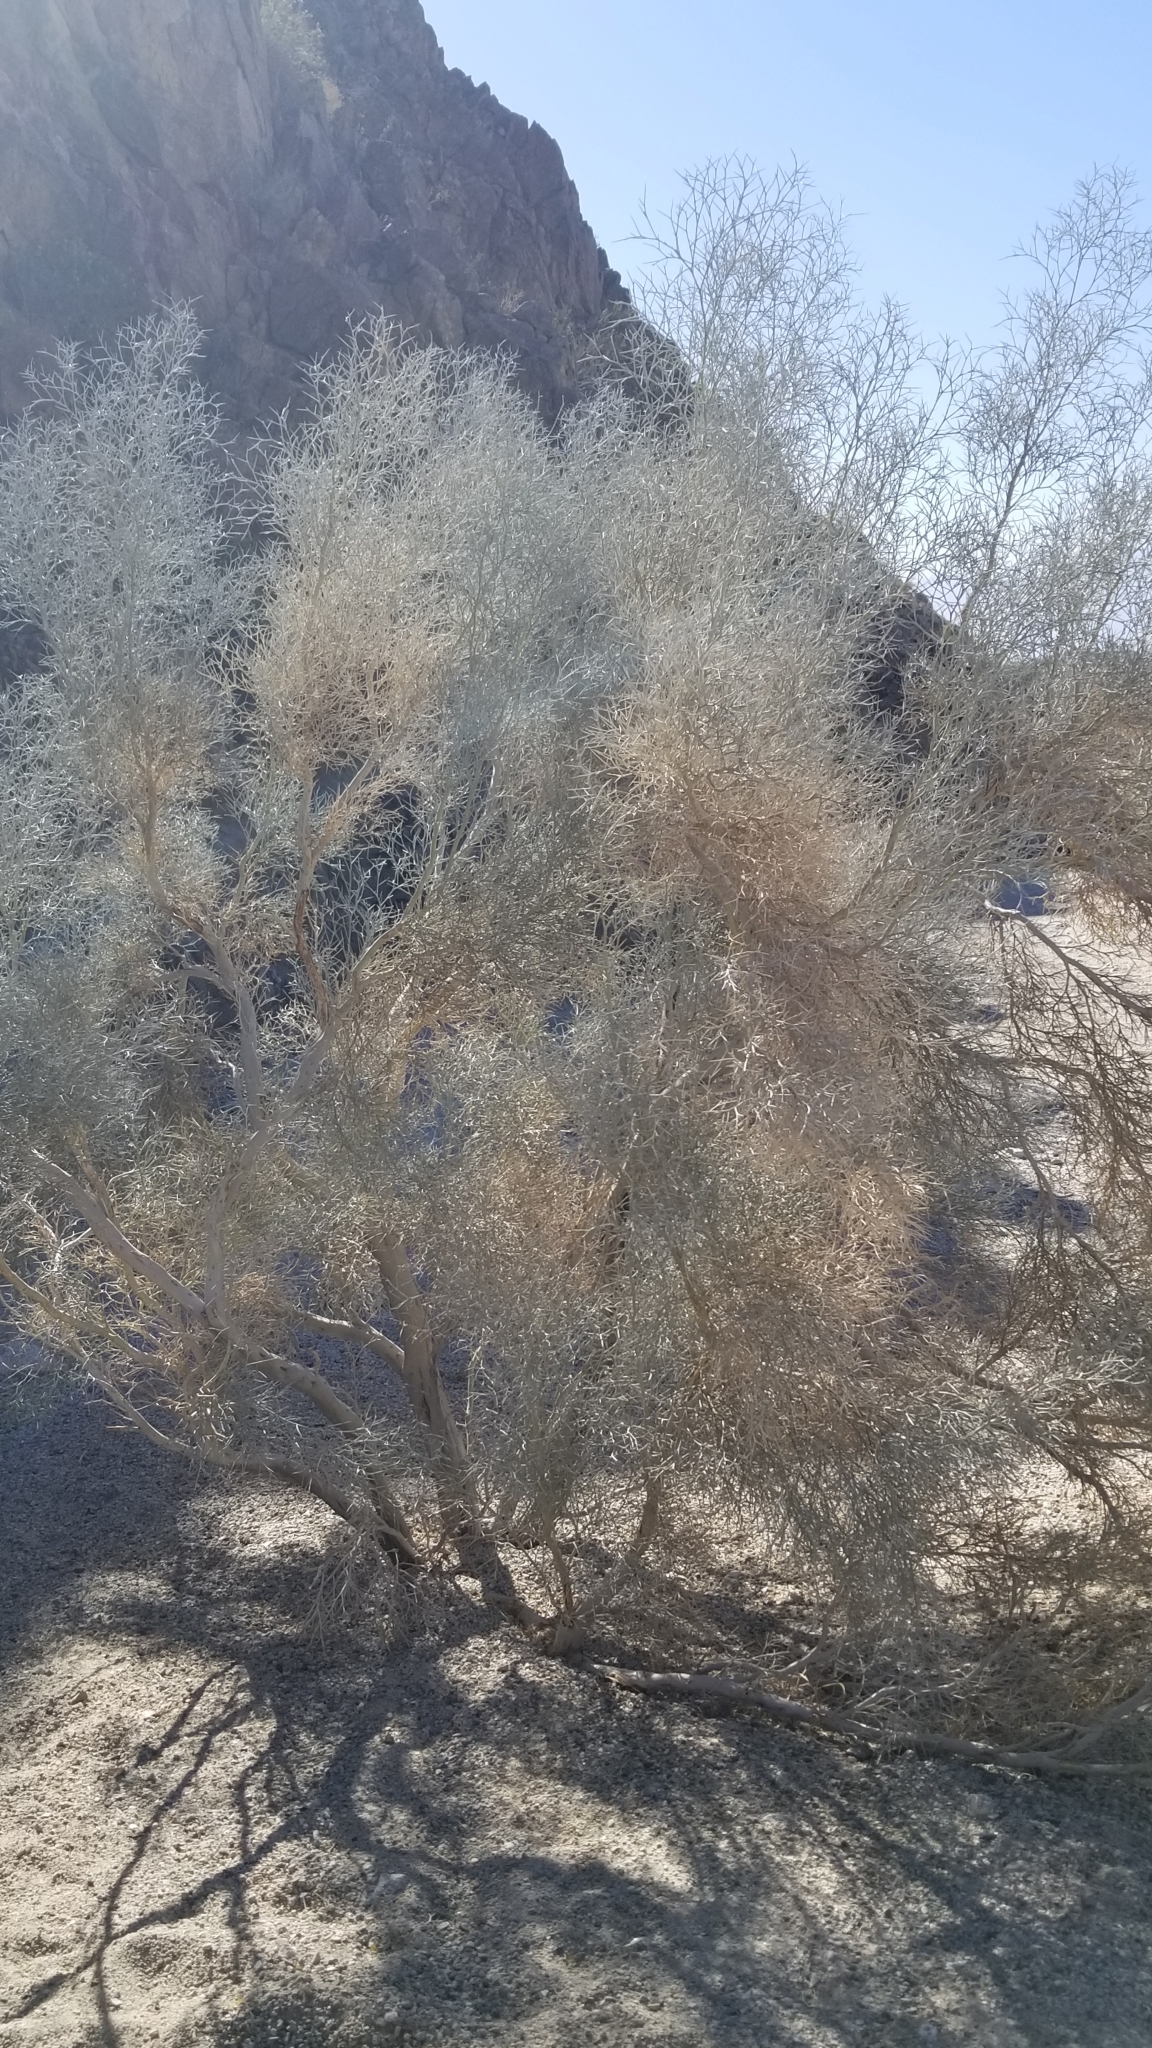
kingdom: Plantae
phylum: Tracheophyta
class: Magnoliopsida
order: Fabales
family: Fabaceae
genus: Psorothamnus
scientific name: Psorothamnus spinosus
